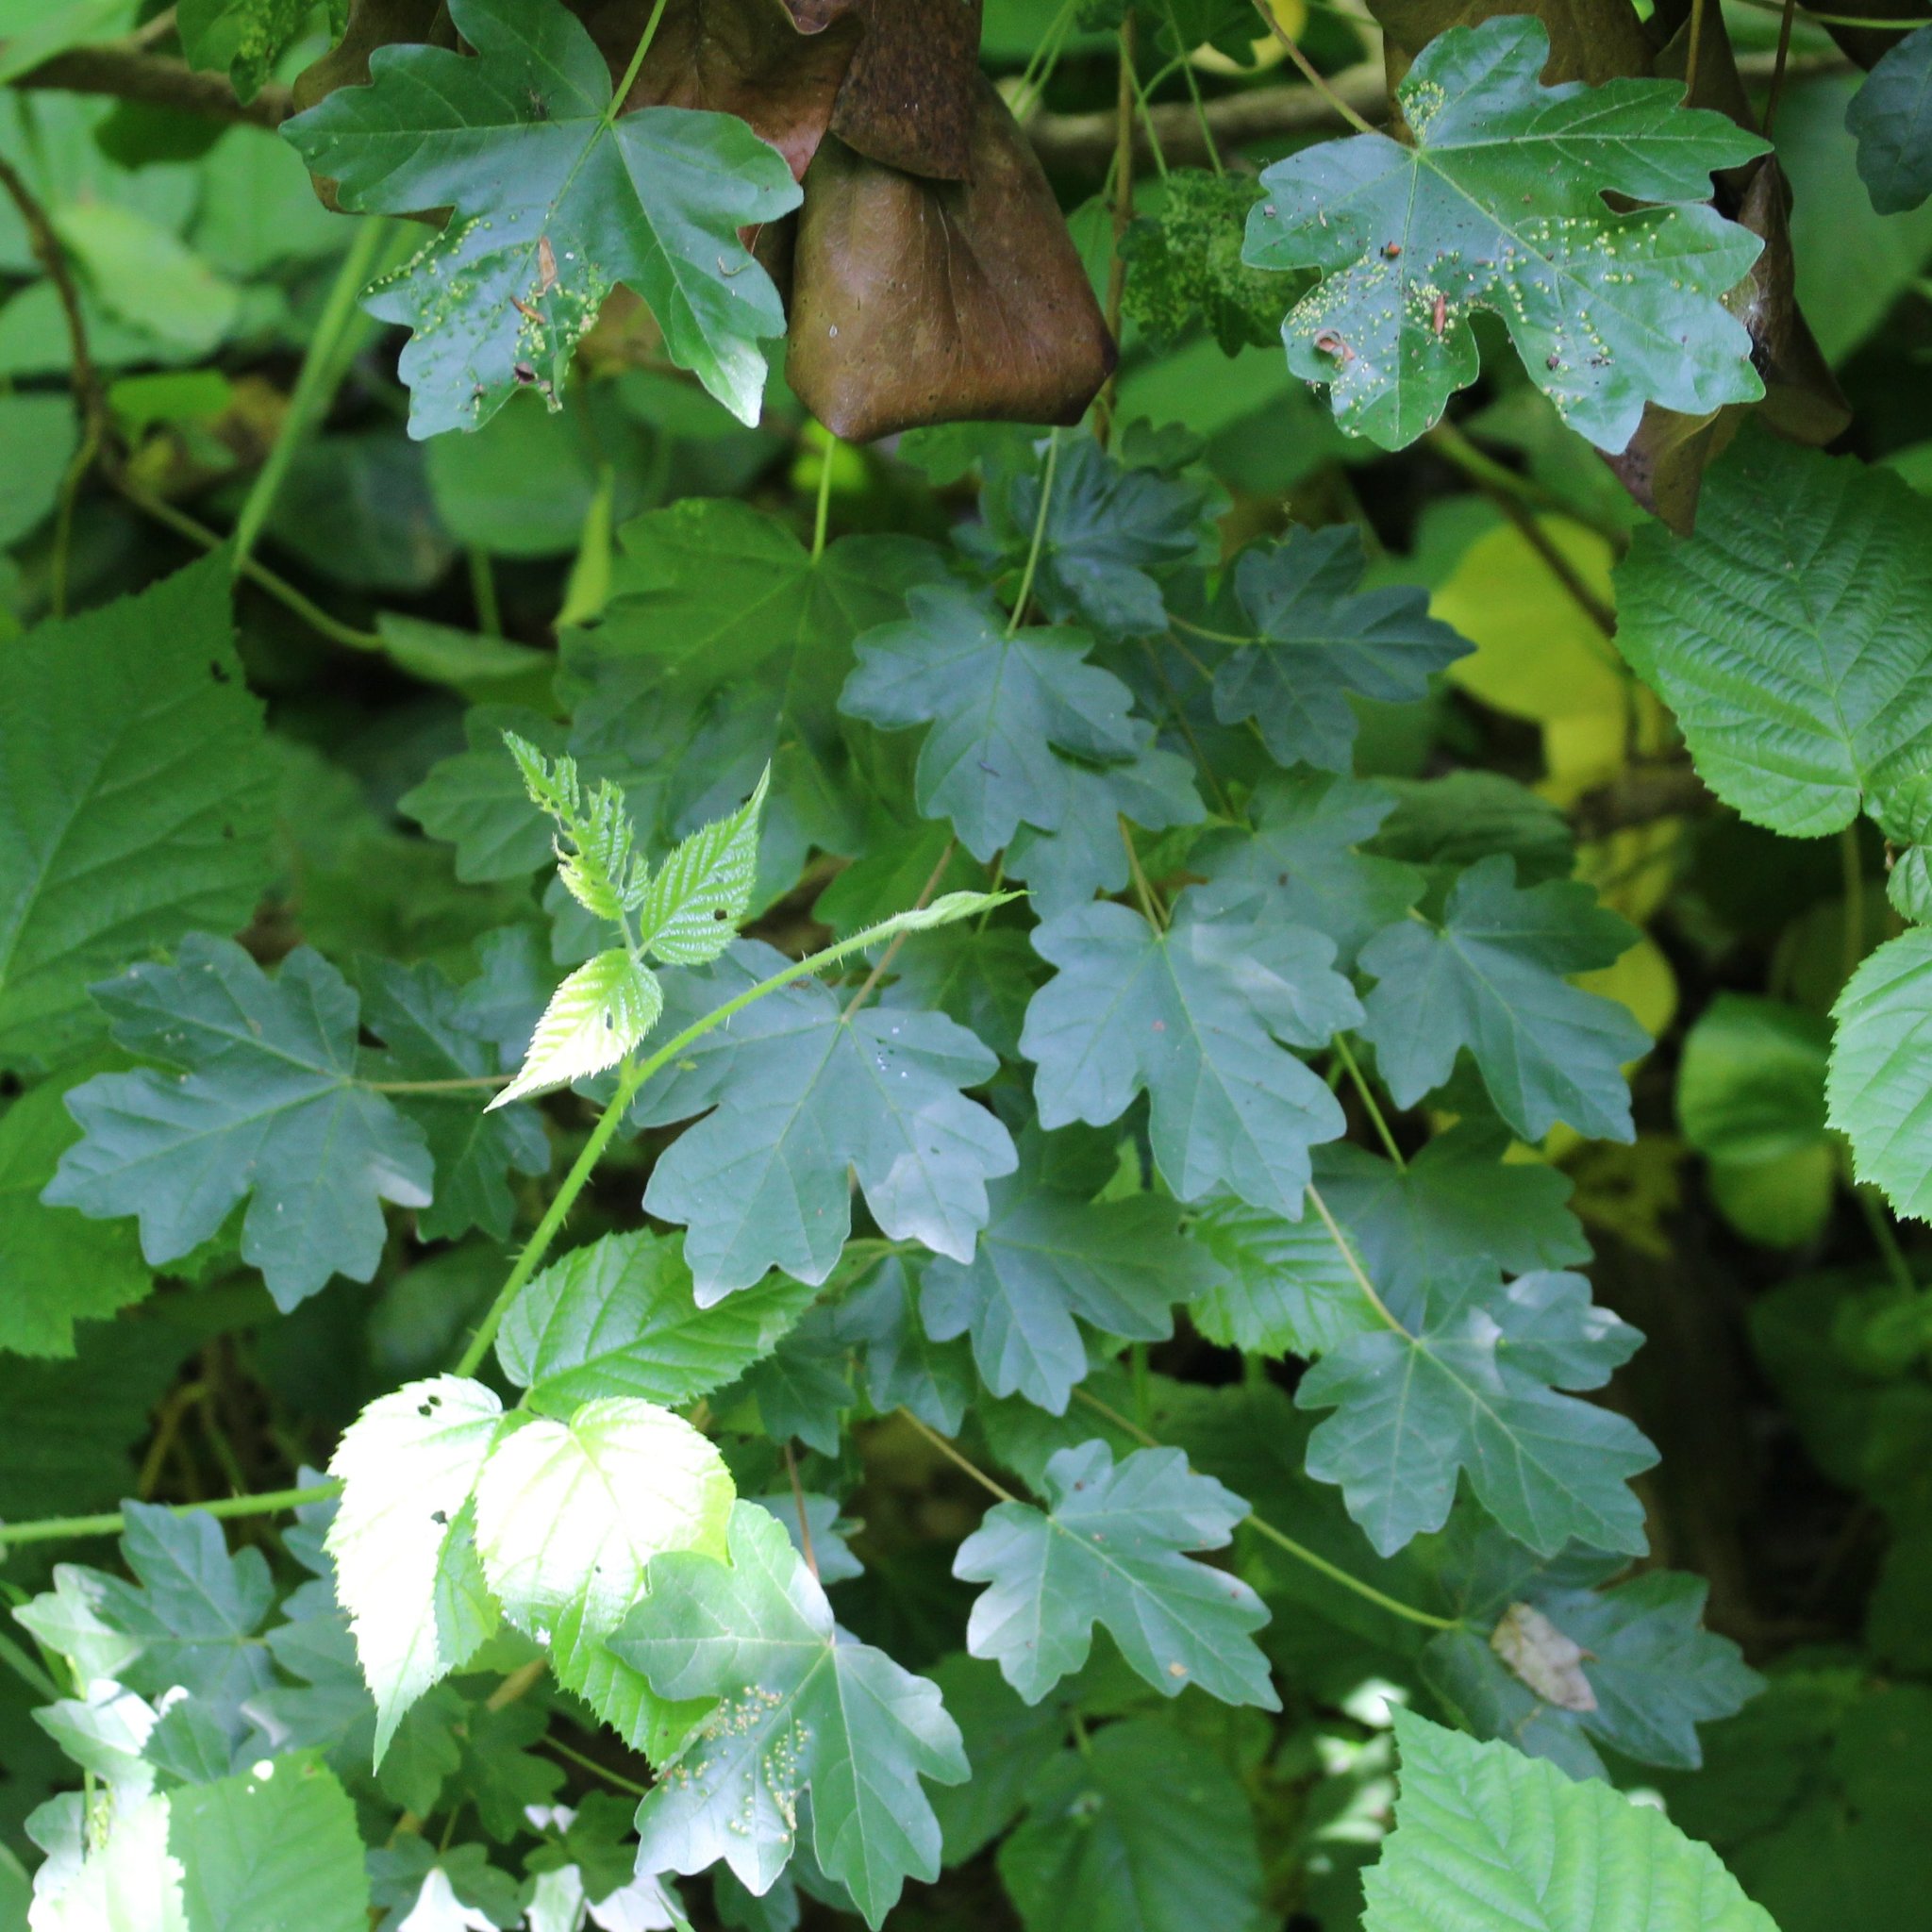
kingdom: Plantae
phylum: Tracheophyta
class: Magnoliopsida
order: Sapindales
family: Sapindaceae
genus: Acer
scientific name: Acer campestre
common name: Field maple
